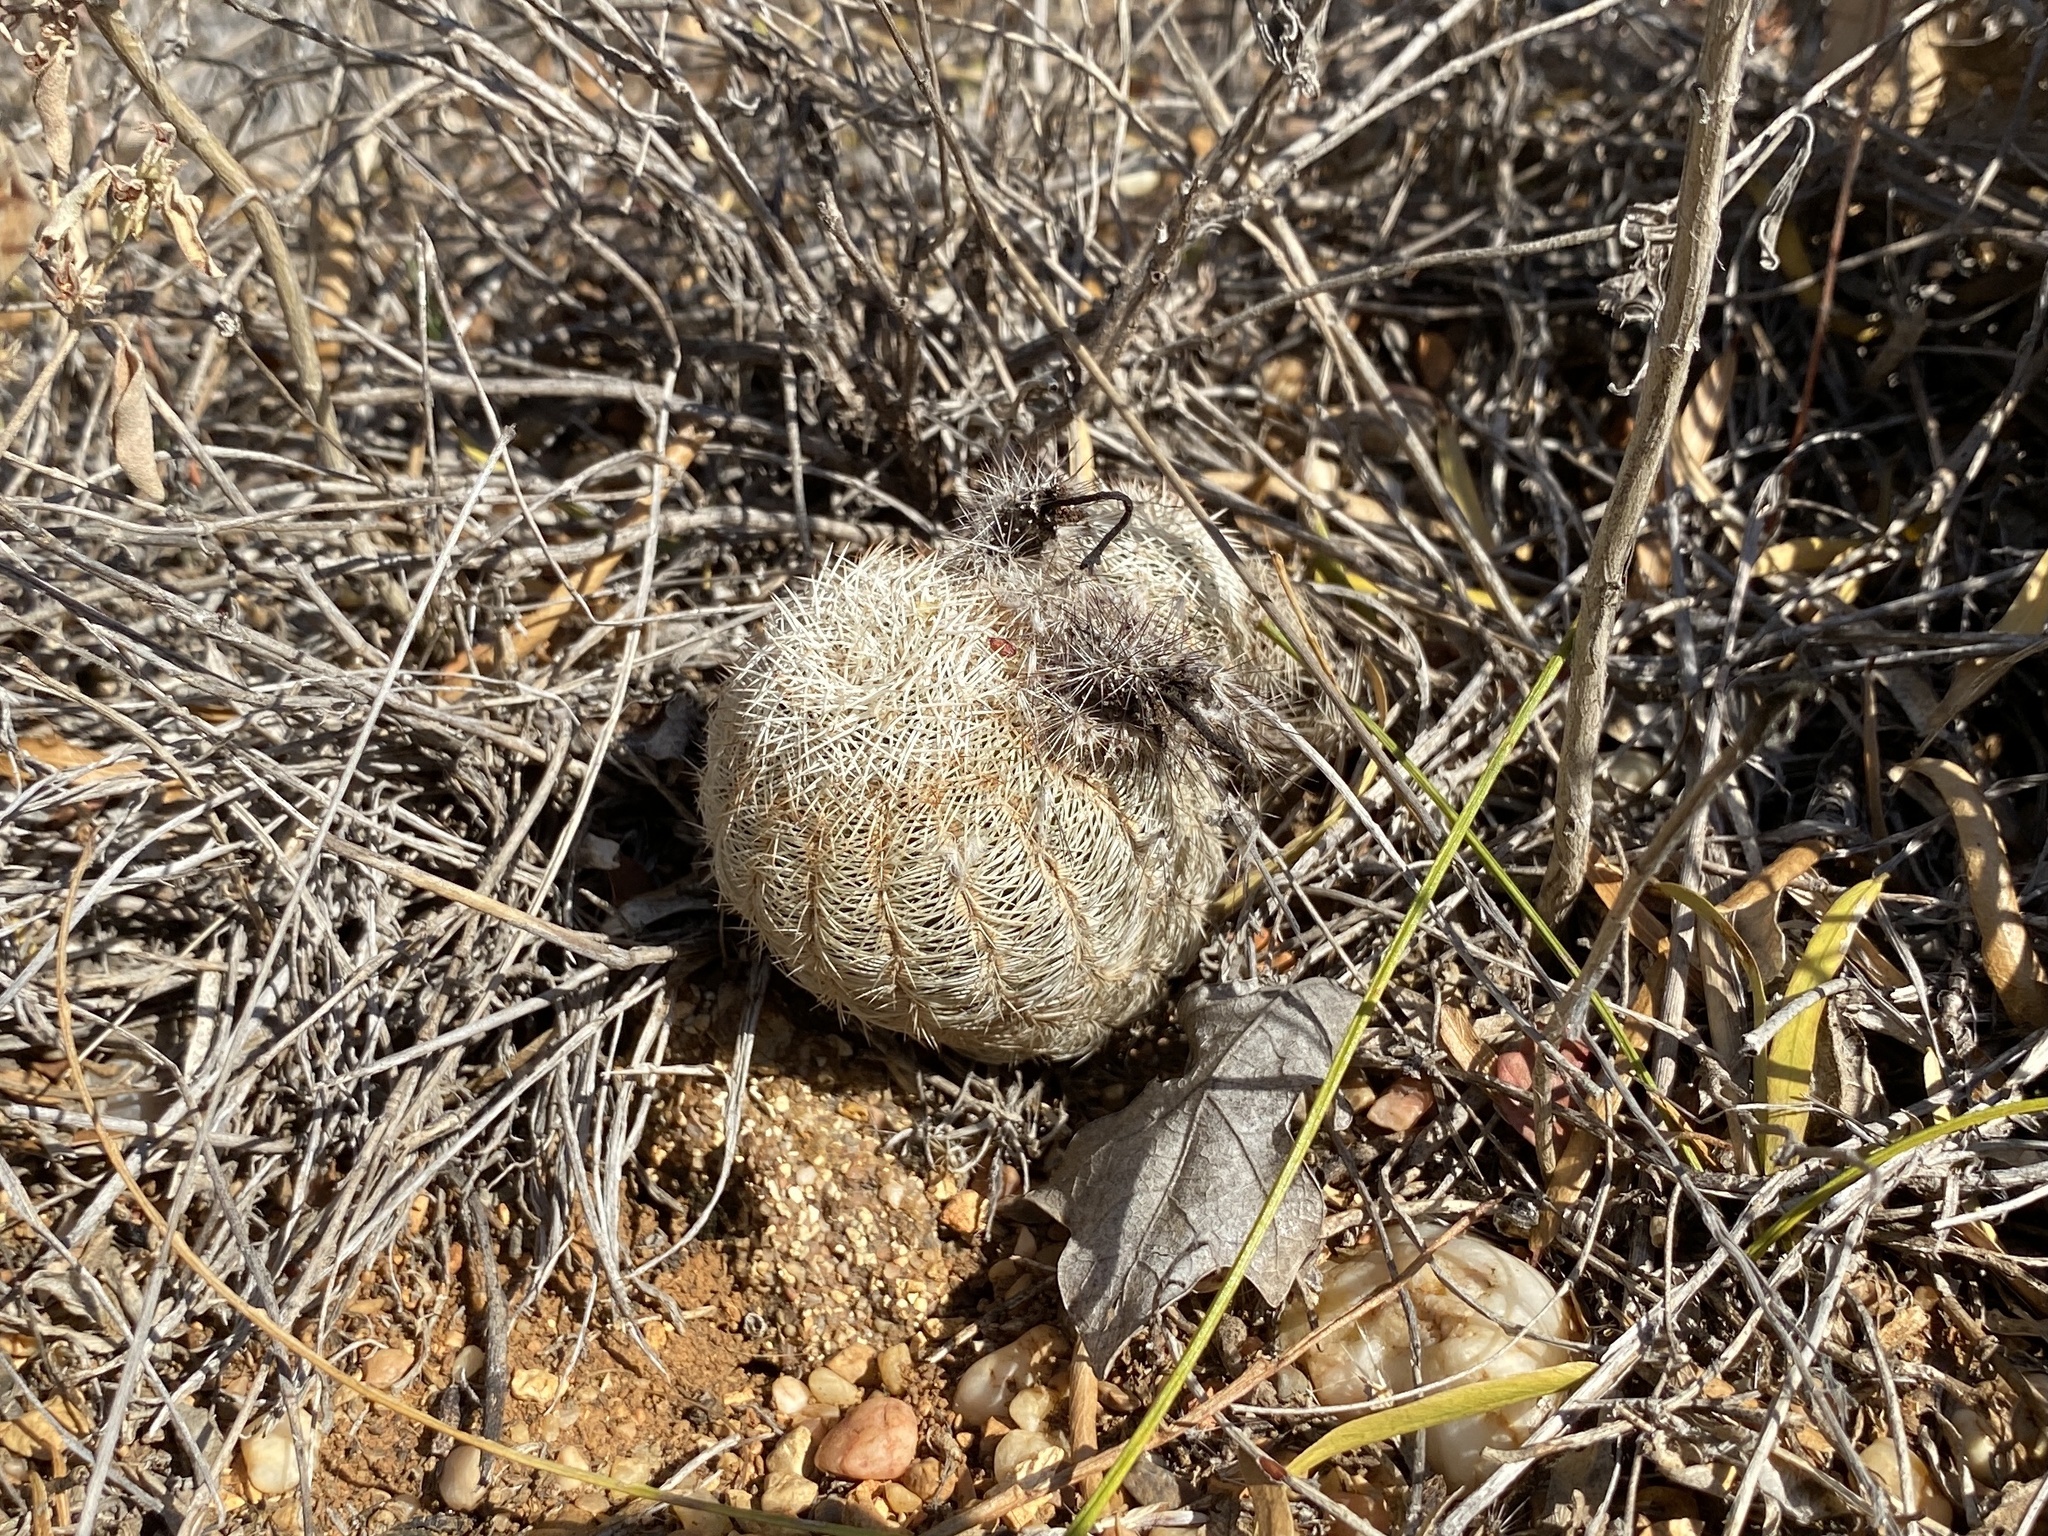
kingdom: Plantae
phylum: Tracheophyta
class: Magnoliopsida
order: Caryophyllales
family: Cactaceae
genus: Echinocereus
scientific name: Echinocereus reichenbachii
